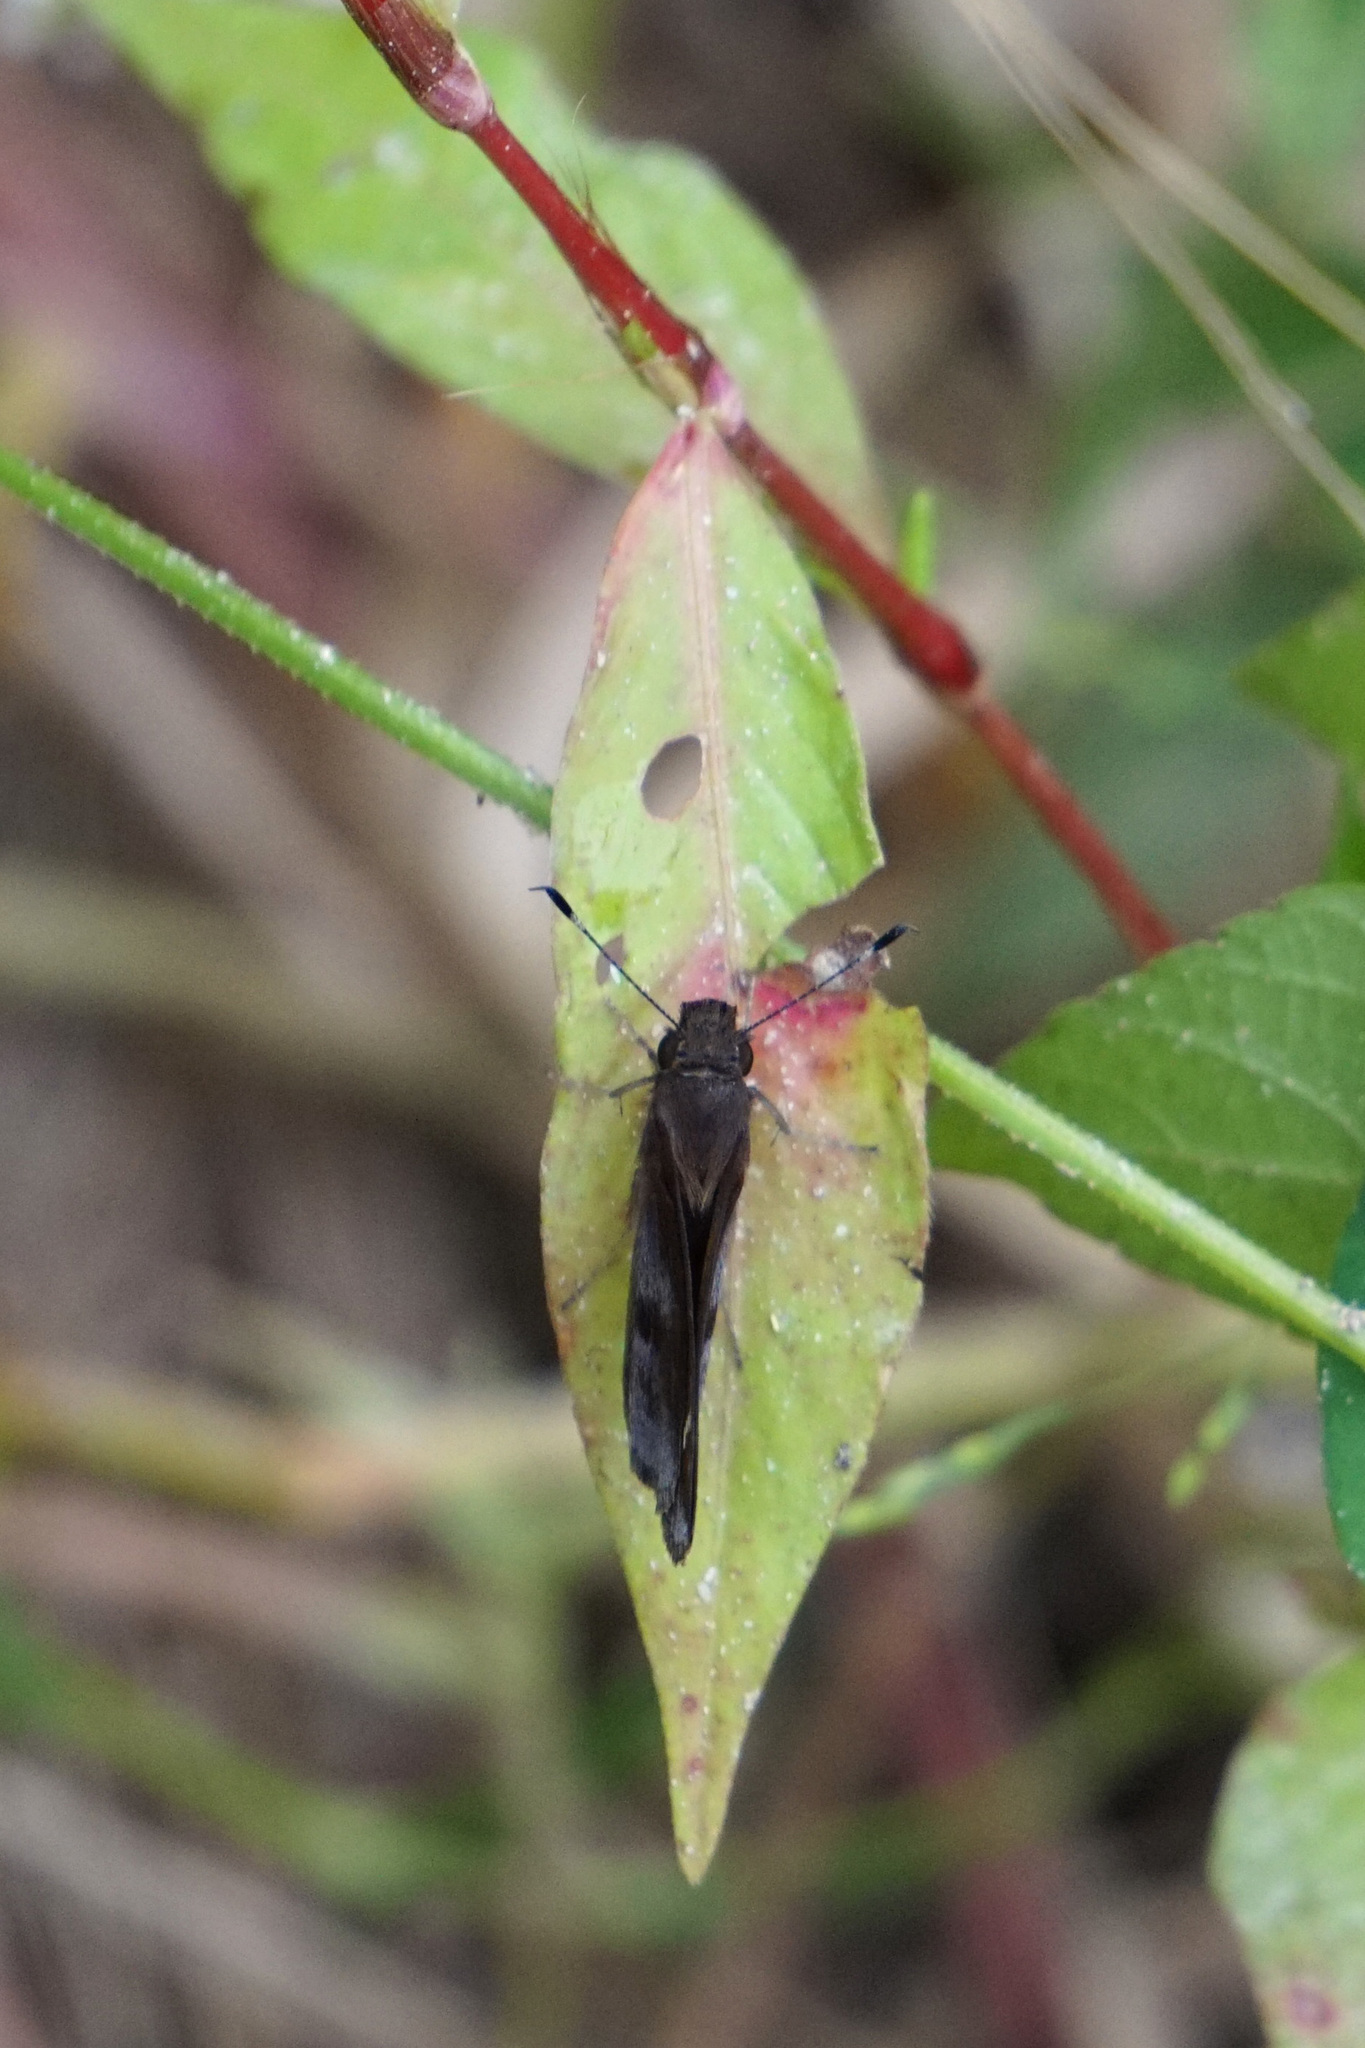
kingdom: Animalia
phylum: Arthropoda
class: Insecta
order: Lepidoptera
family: Hesperiidae
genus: Lerema
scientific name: Lerema accius
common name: Clouded skipper
